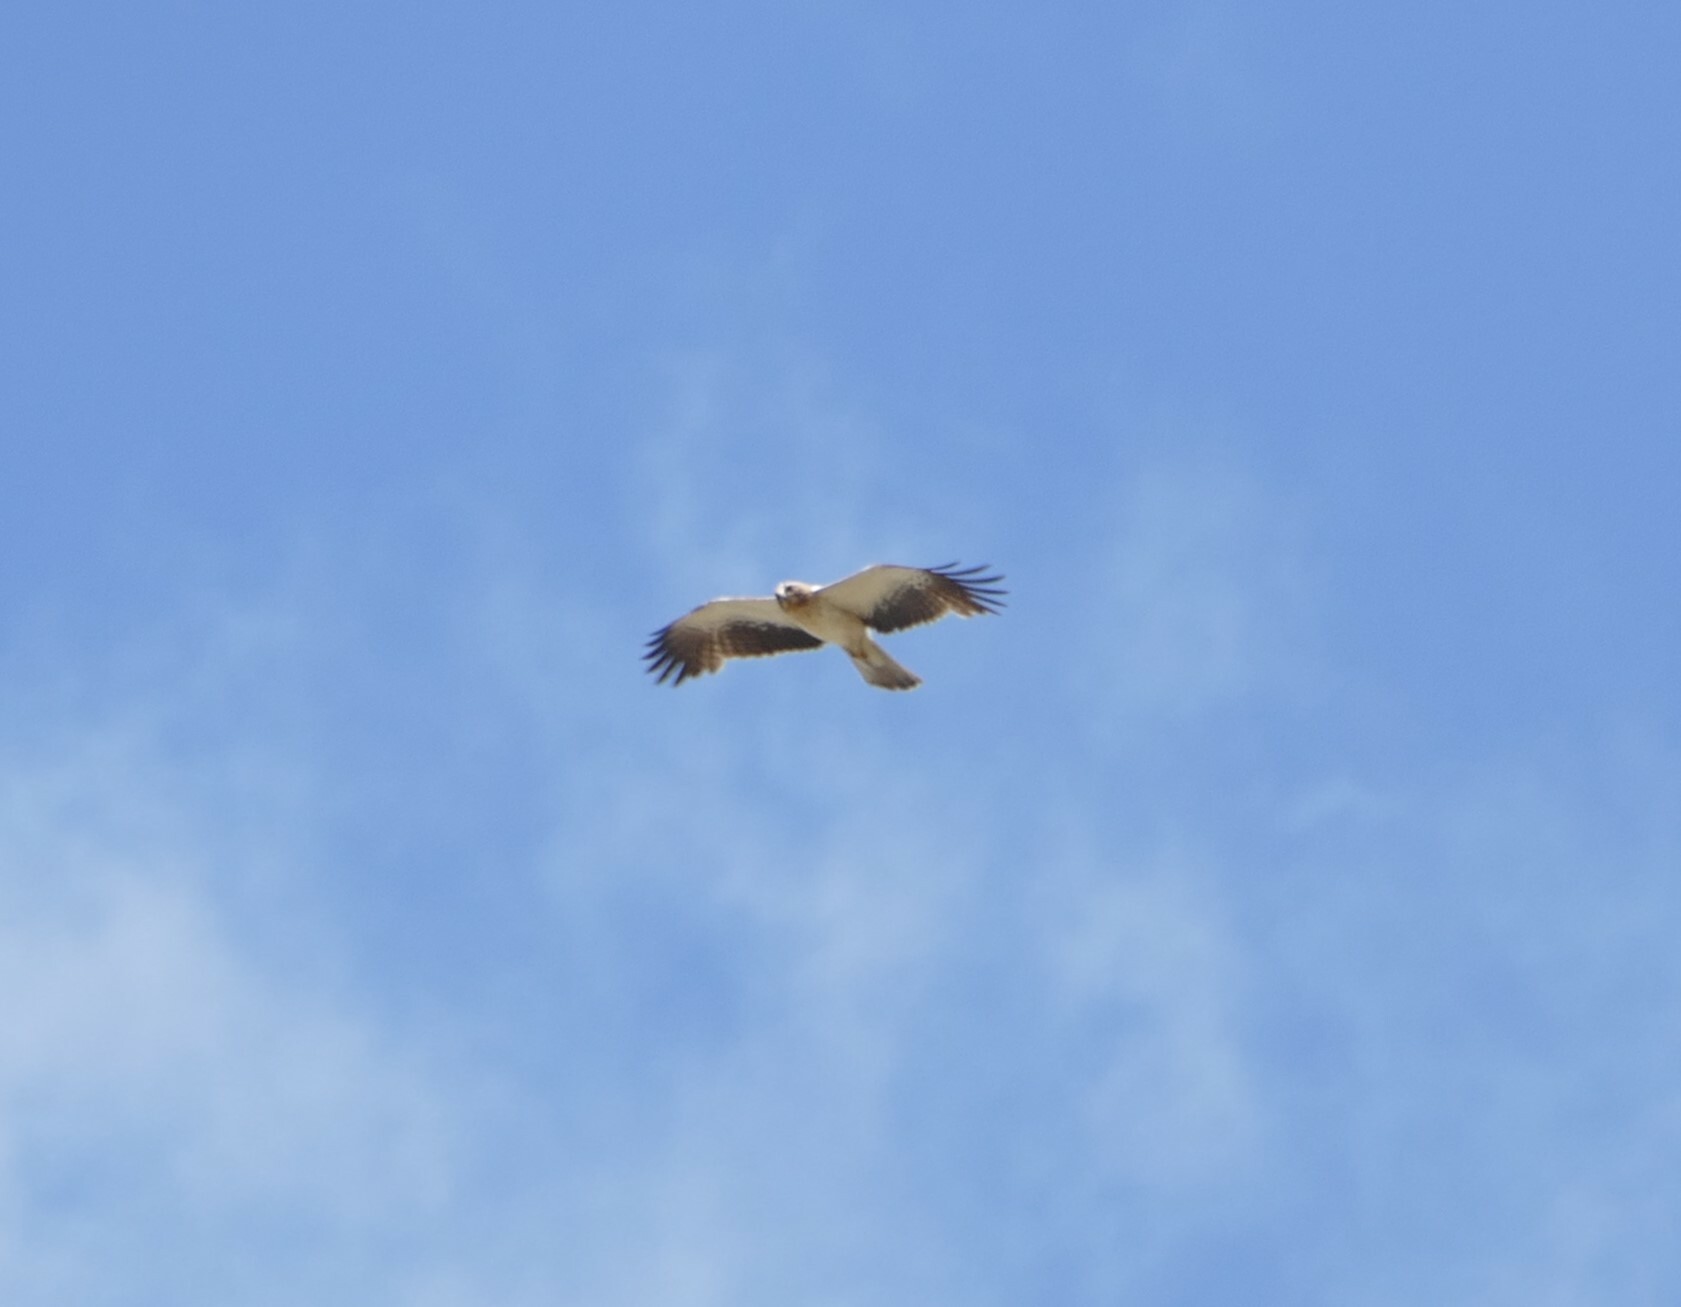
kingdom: Animalia
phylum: Chordata
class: Aves
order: Accipitriformes
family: Accipitridae
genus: Hieraaetus
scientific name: Hieraaetus pennatus
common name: Booted eagle
